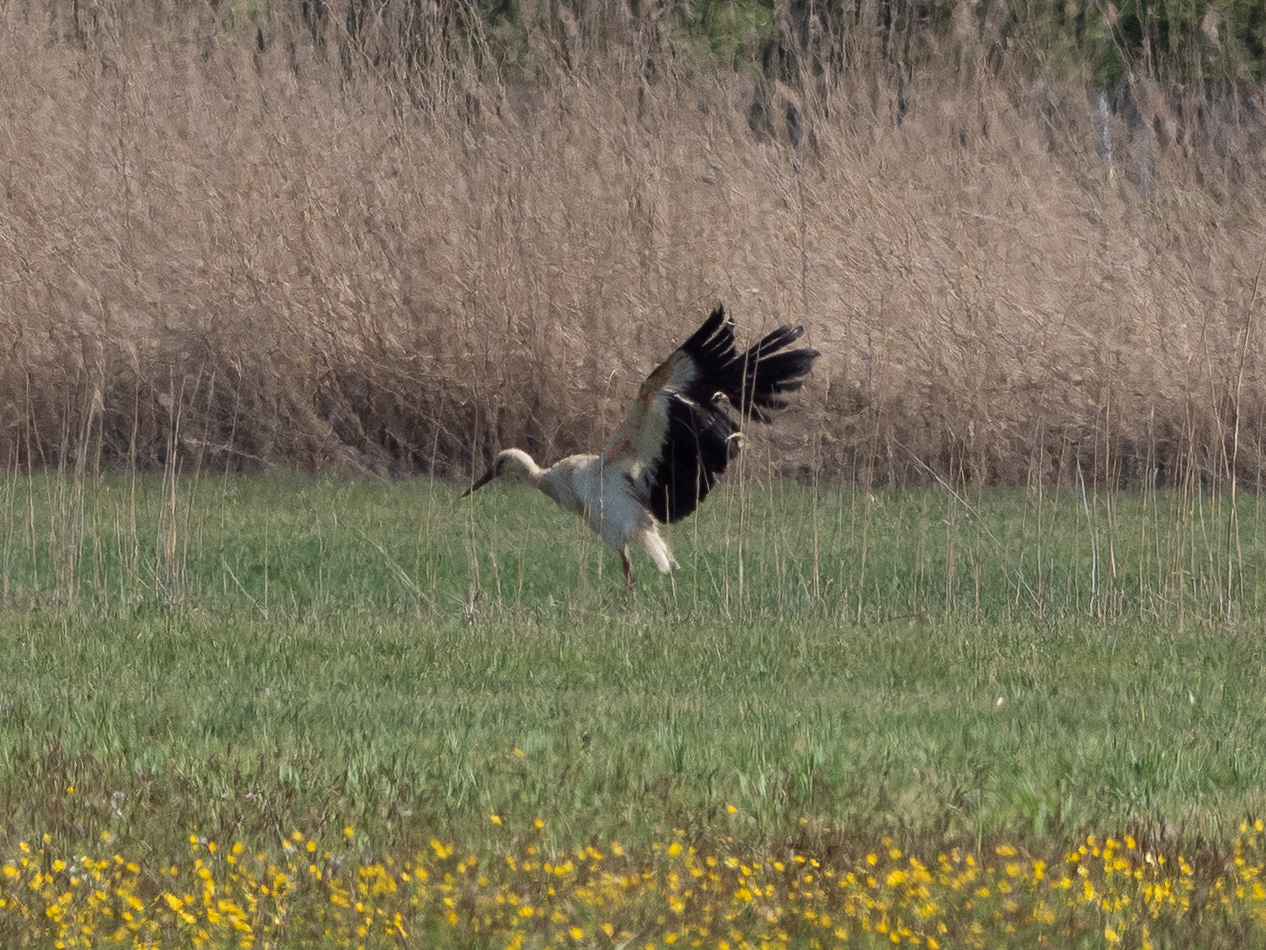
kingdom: Animalia
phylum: Chordata
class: Aves
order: Ciconiiformes
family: Ciconiidae
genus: Ciconia
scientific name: Ciconia ciconia
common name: White stork
